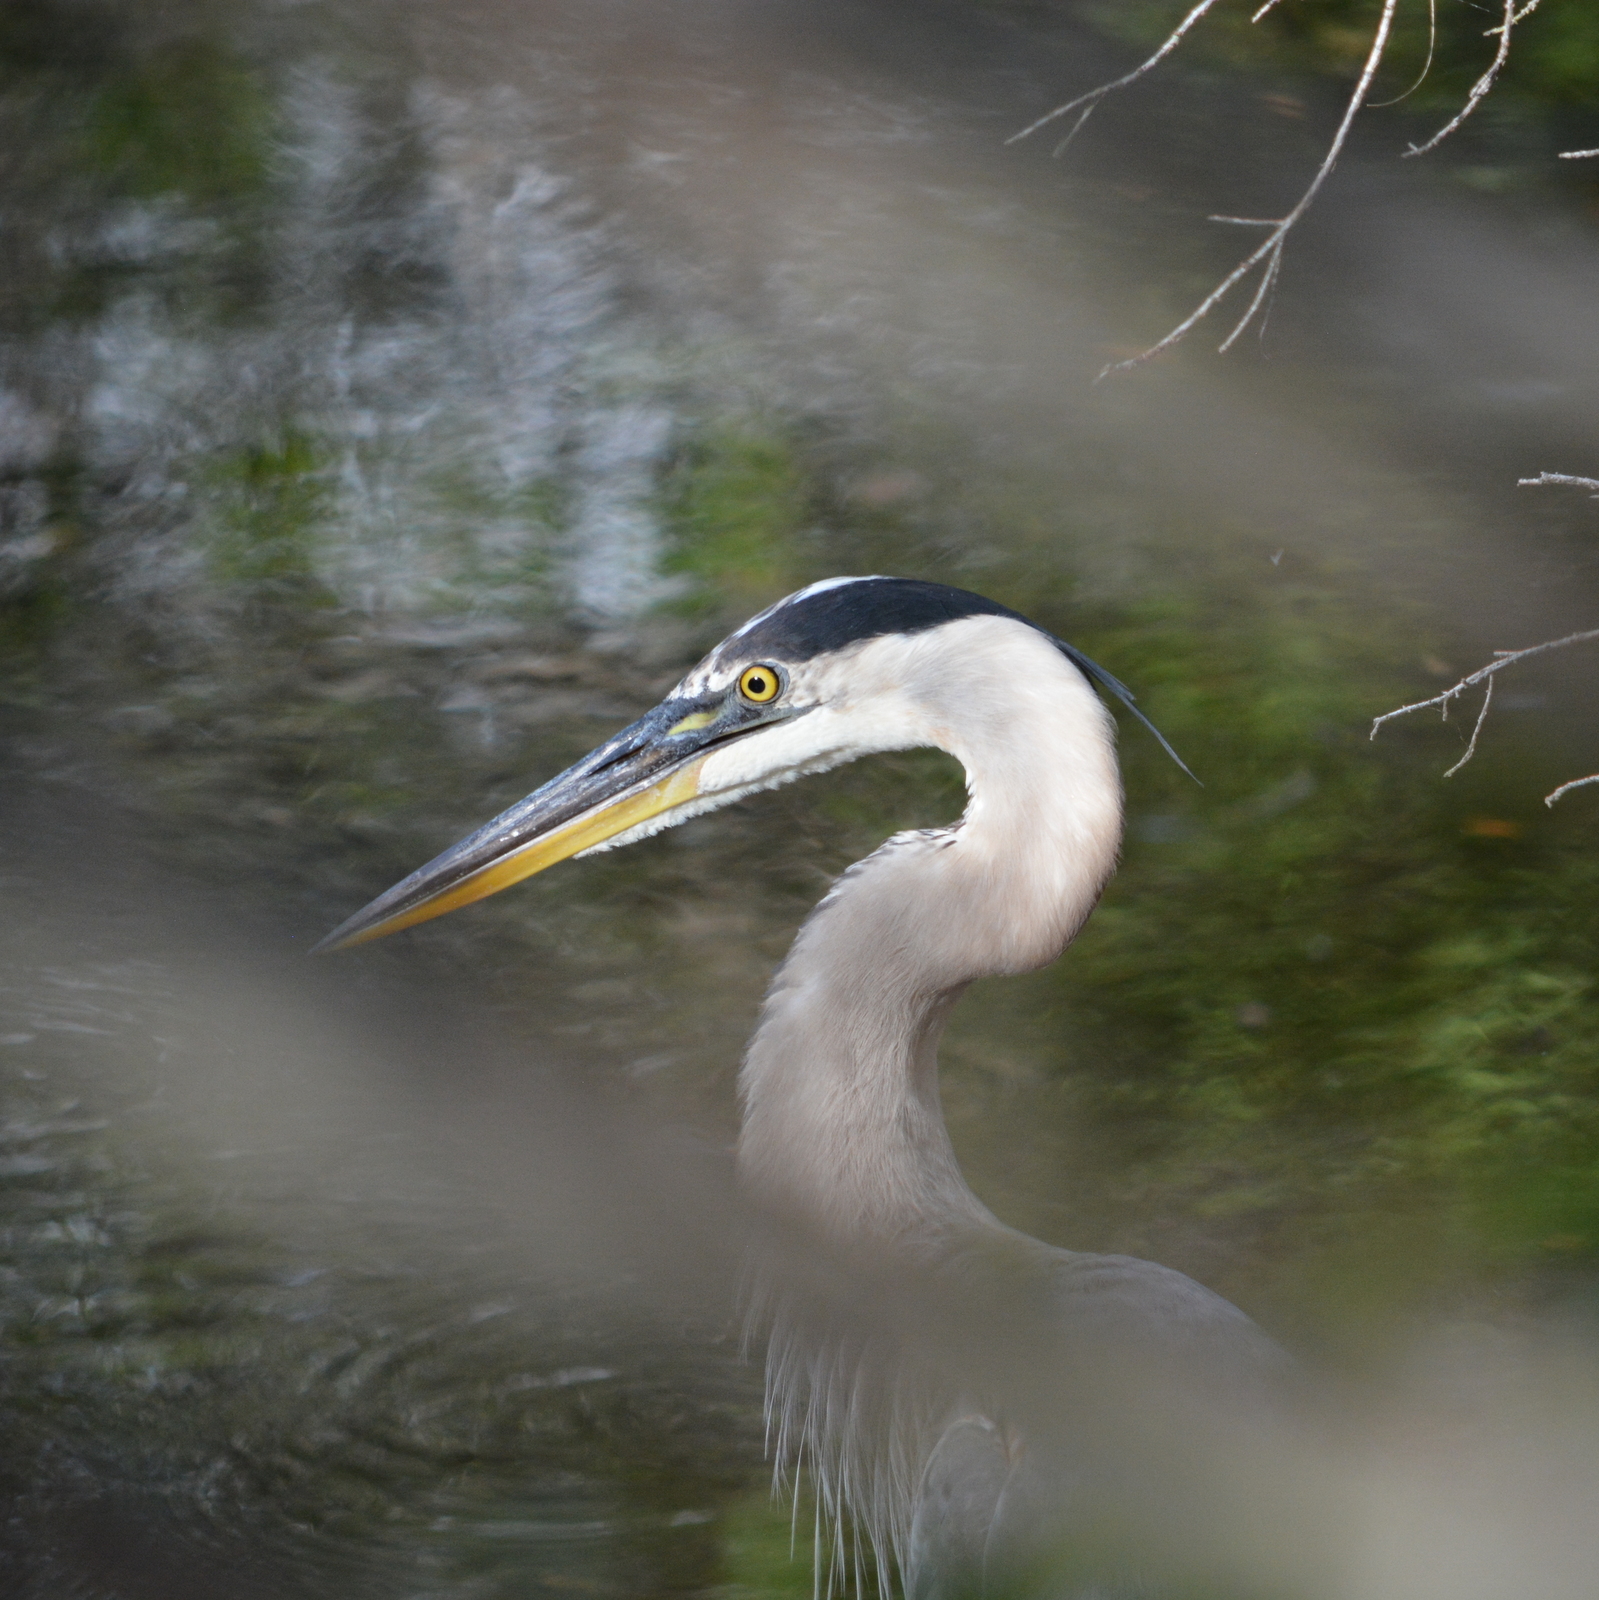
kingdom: Animalia
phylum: Chordata
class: Aves
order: Pelecaniformes
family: Ardeidae
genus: Ardea
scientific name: Ardea herodias
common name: Great blue heron
